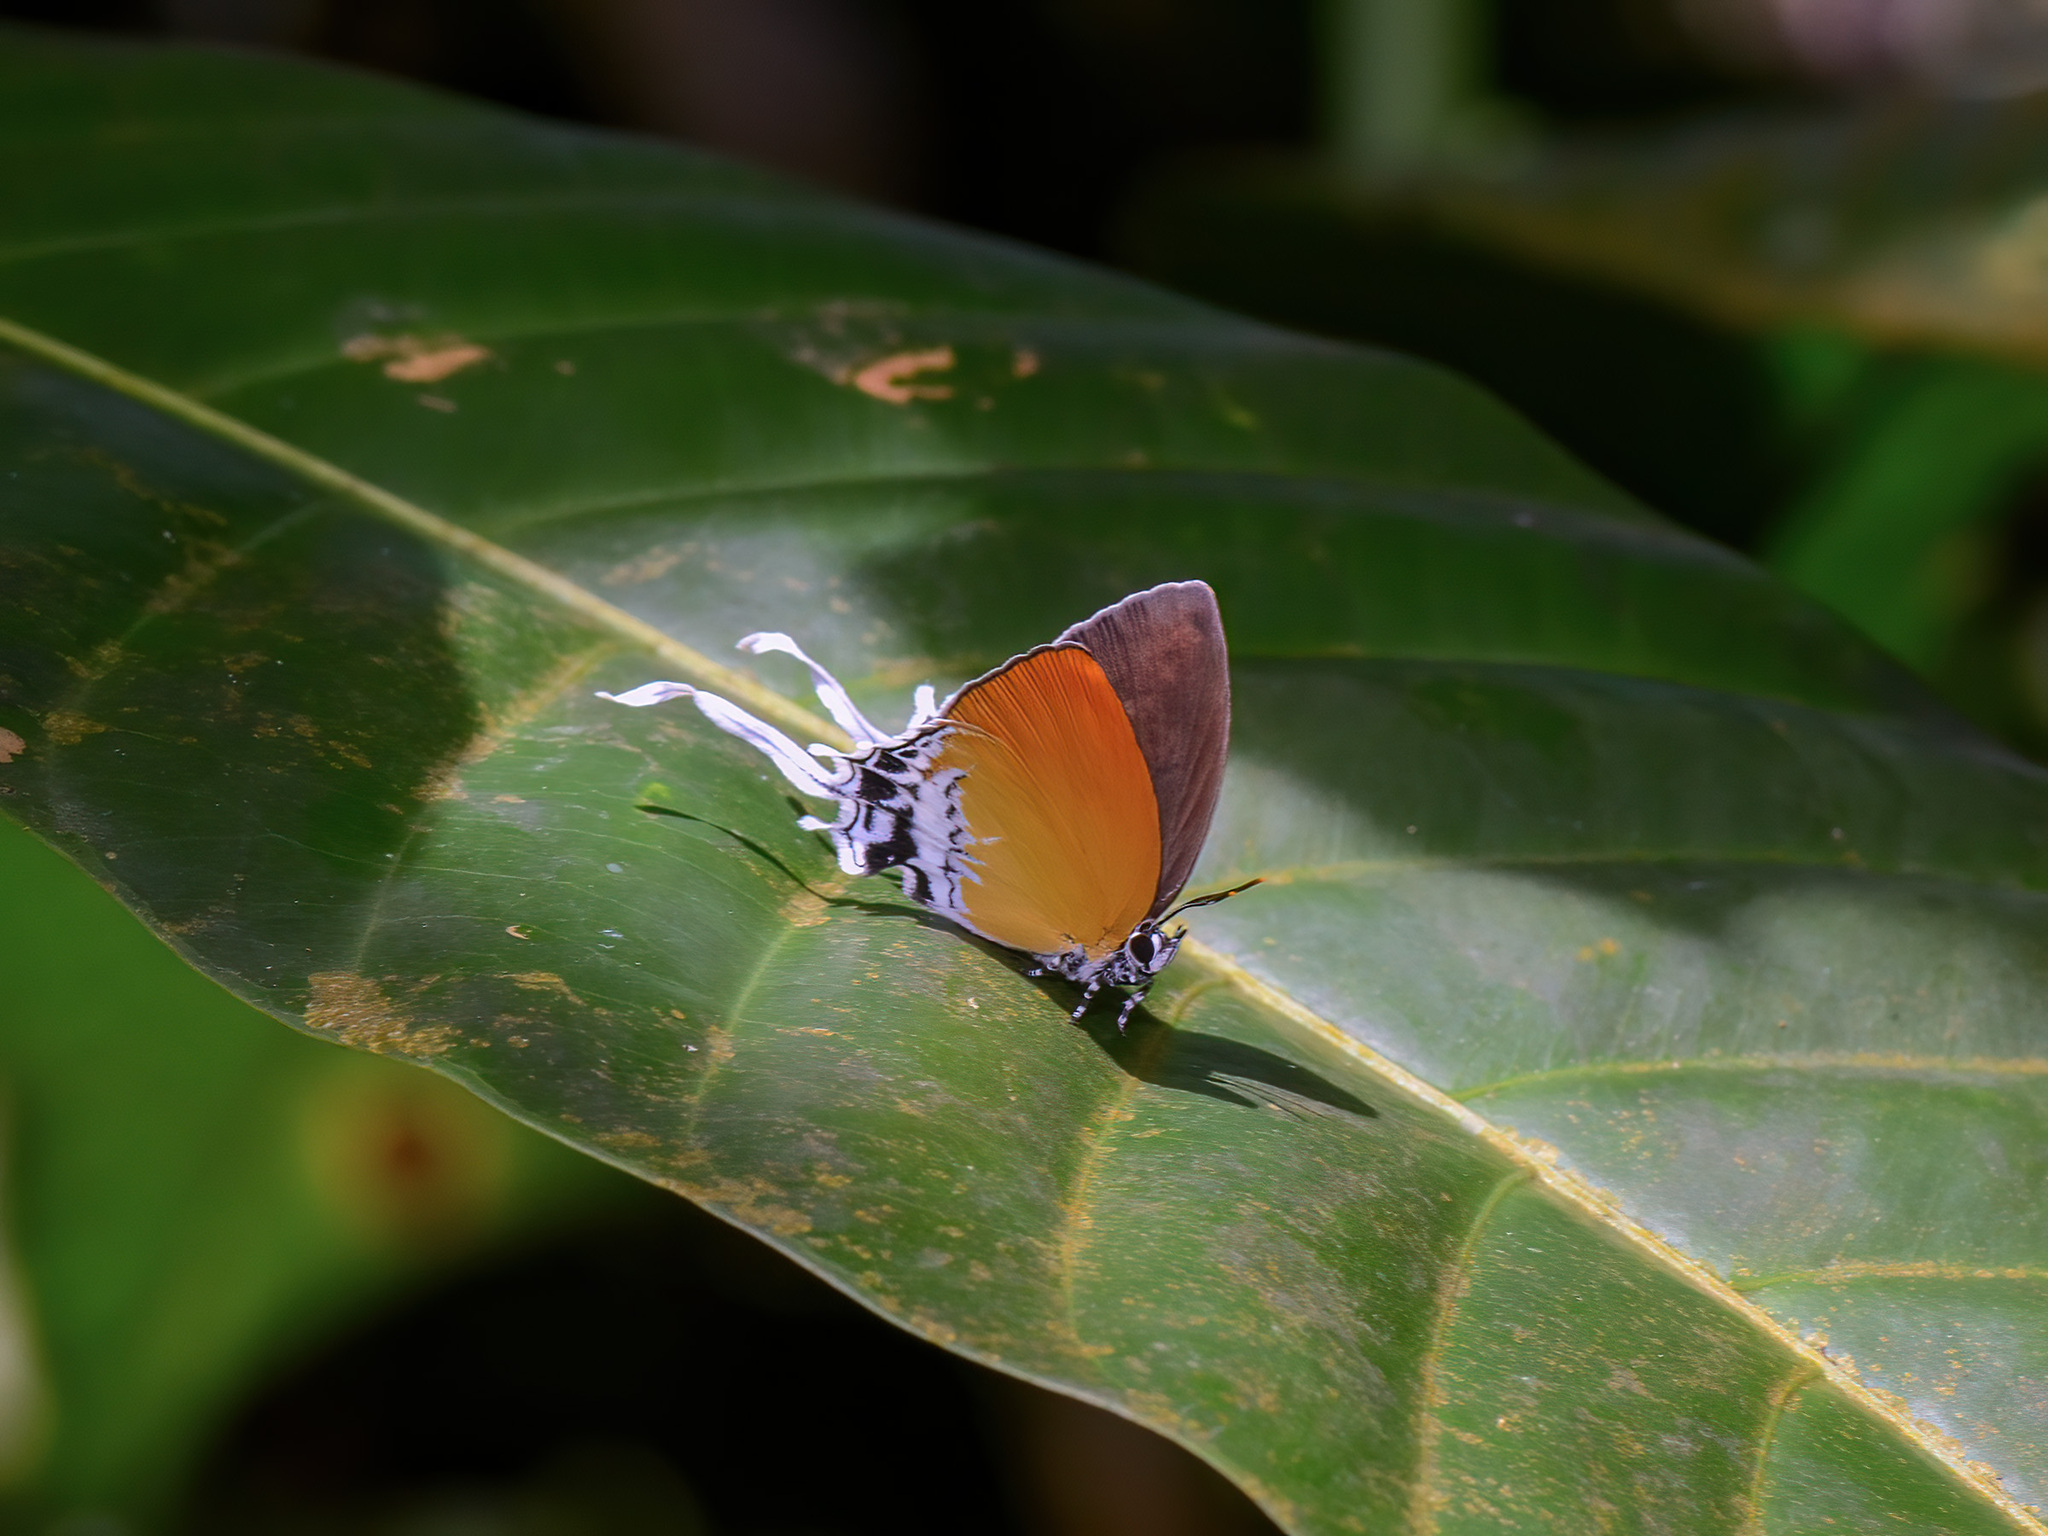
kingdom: Animalia
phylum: Arthropoda
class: Insecta
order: Lepidoptera
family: Lycaenidae
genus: Eooxylides
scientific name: Eooxylides tharis
